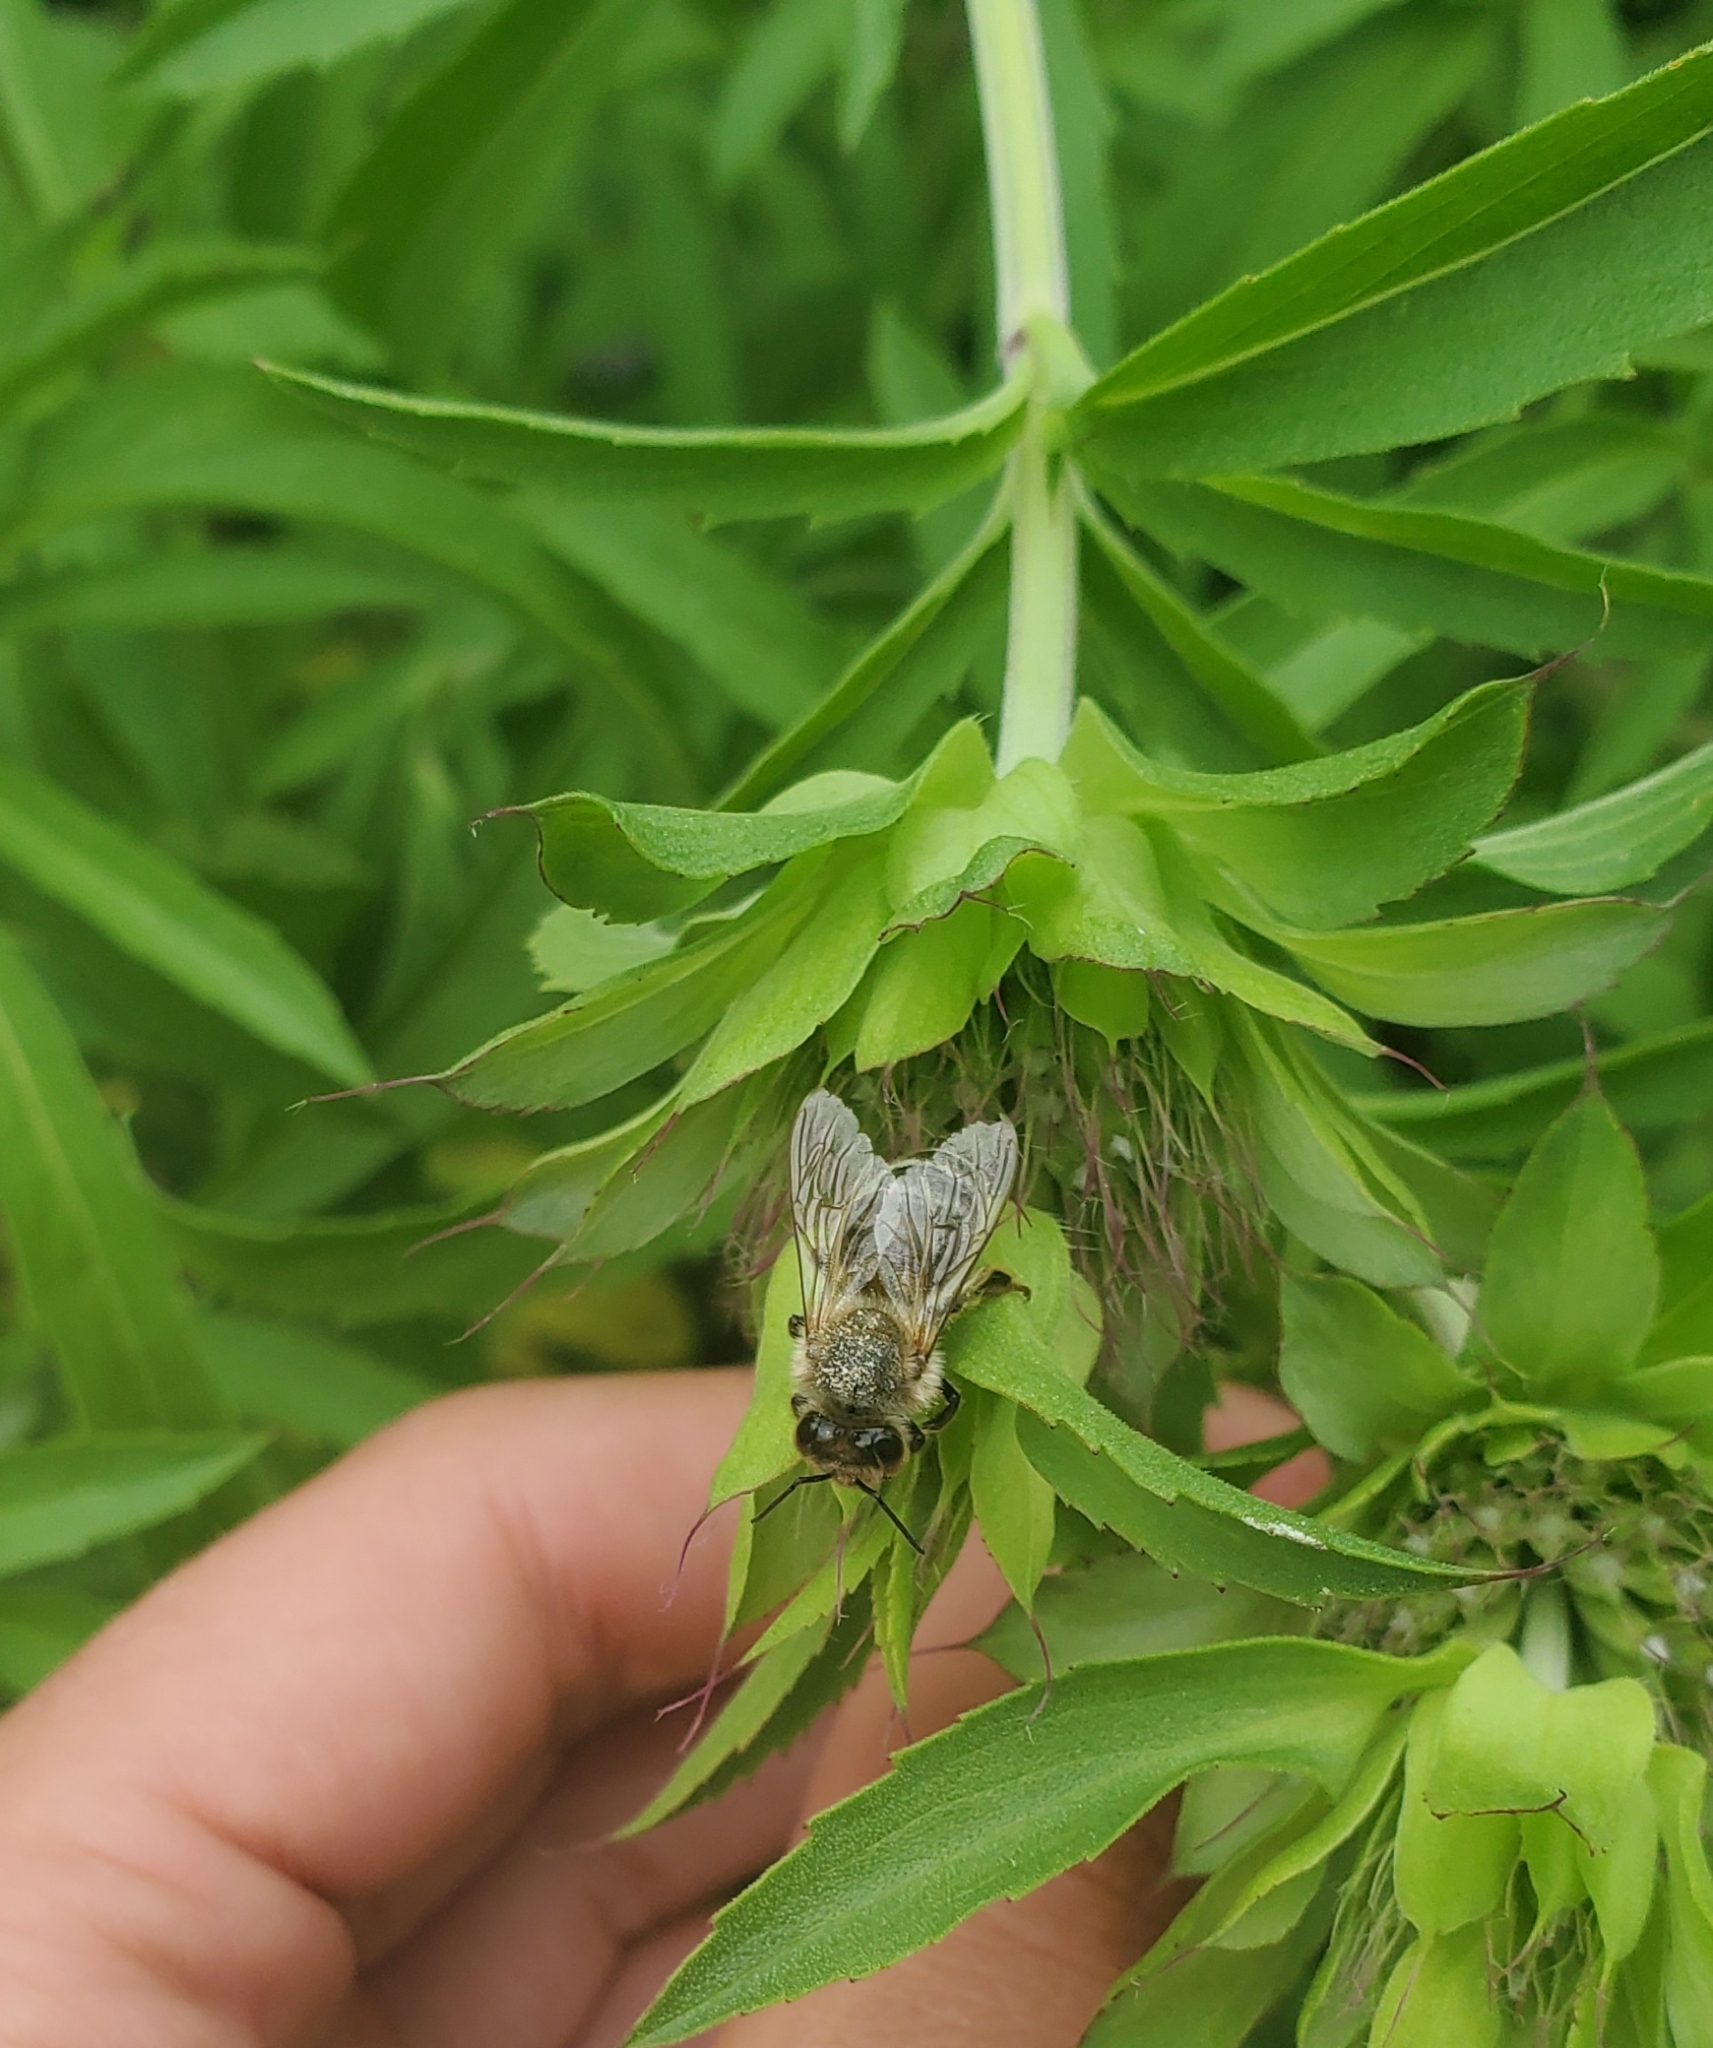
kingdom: Animalia
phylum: Arthropoda
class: Insecta
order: Hymenoptera
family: Apidae
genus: Apis
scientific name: Apis mellifera
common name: Honey bee
